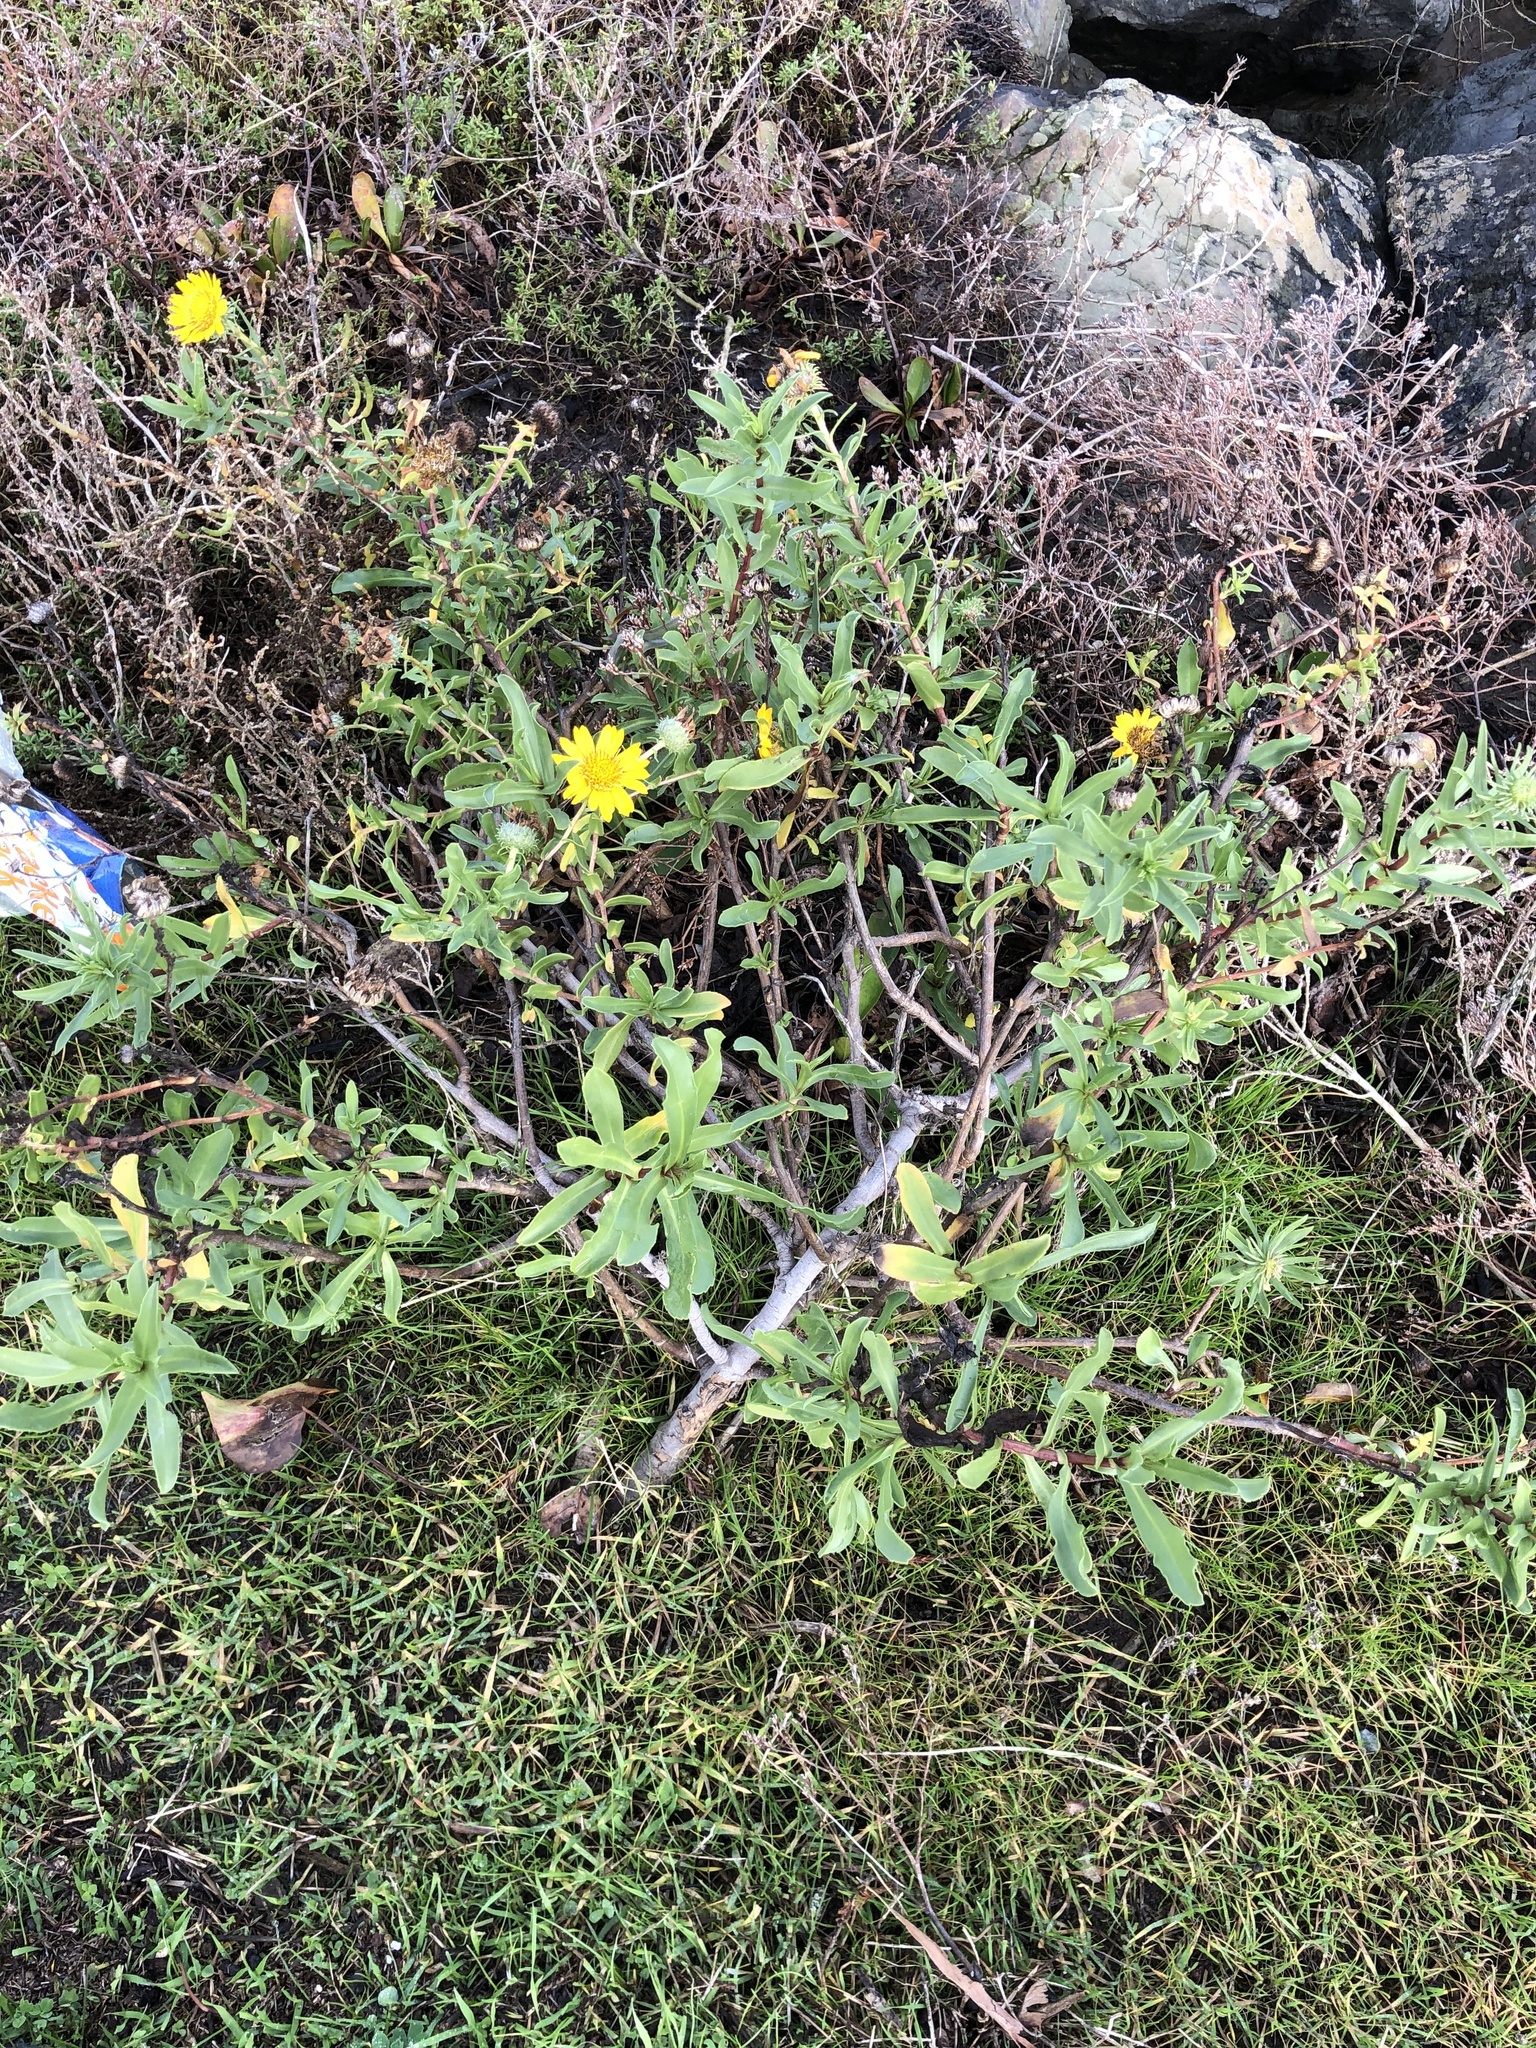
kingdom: Plantae
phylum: Tracheophyta
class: Magnoliopsida
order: Asterales
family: Asteraceae
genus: Grindelia
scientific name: Grindelia hirsutula
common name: Hairy gumweed
